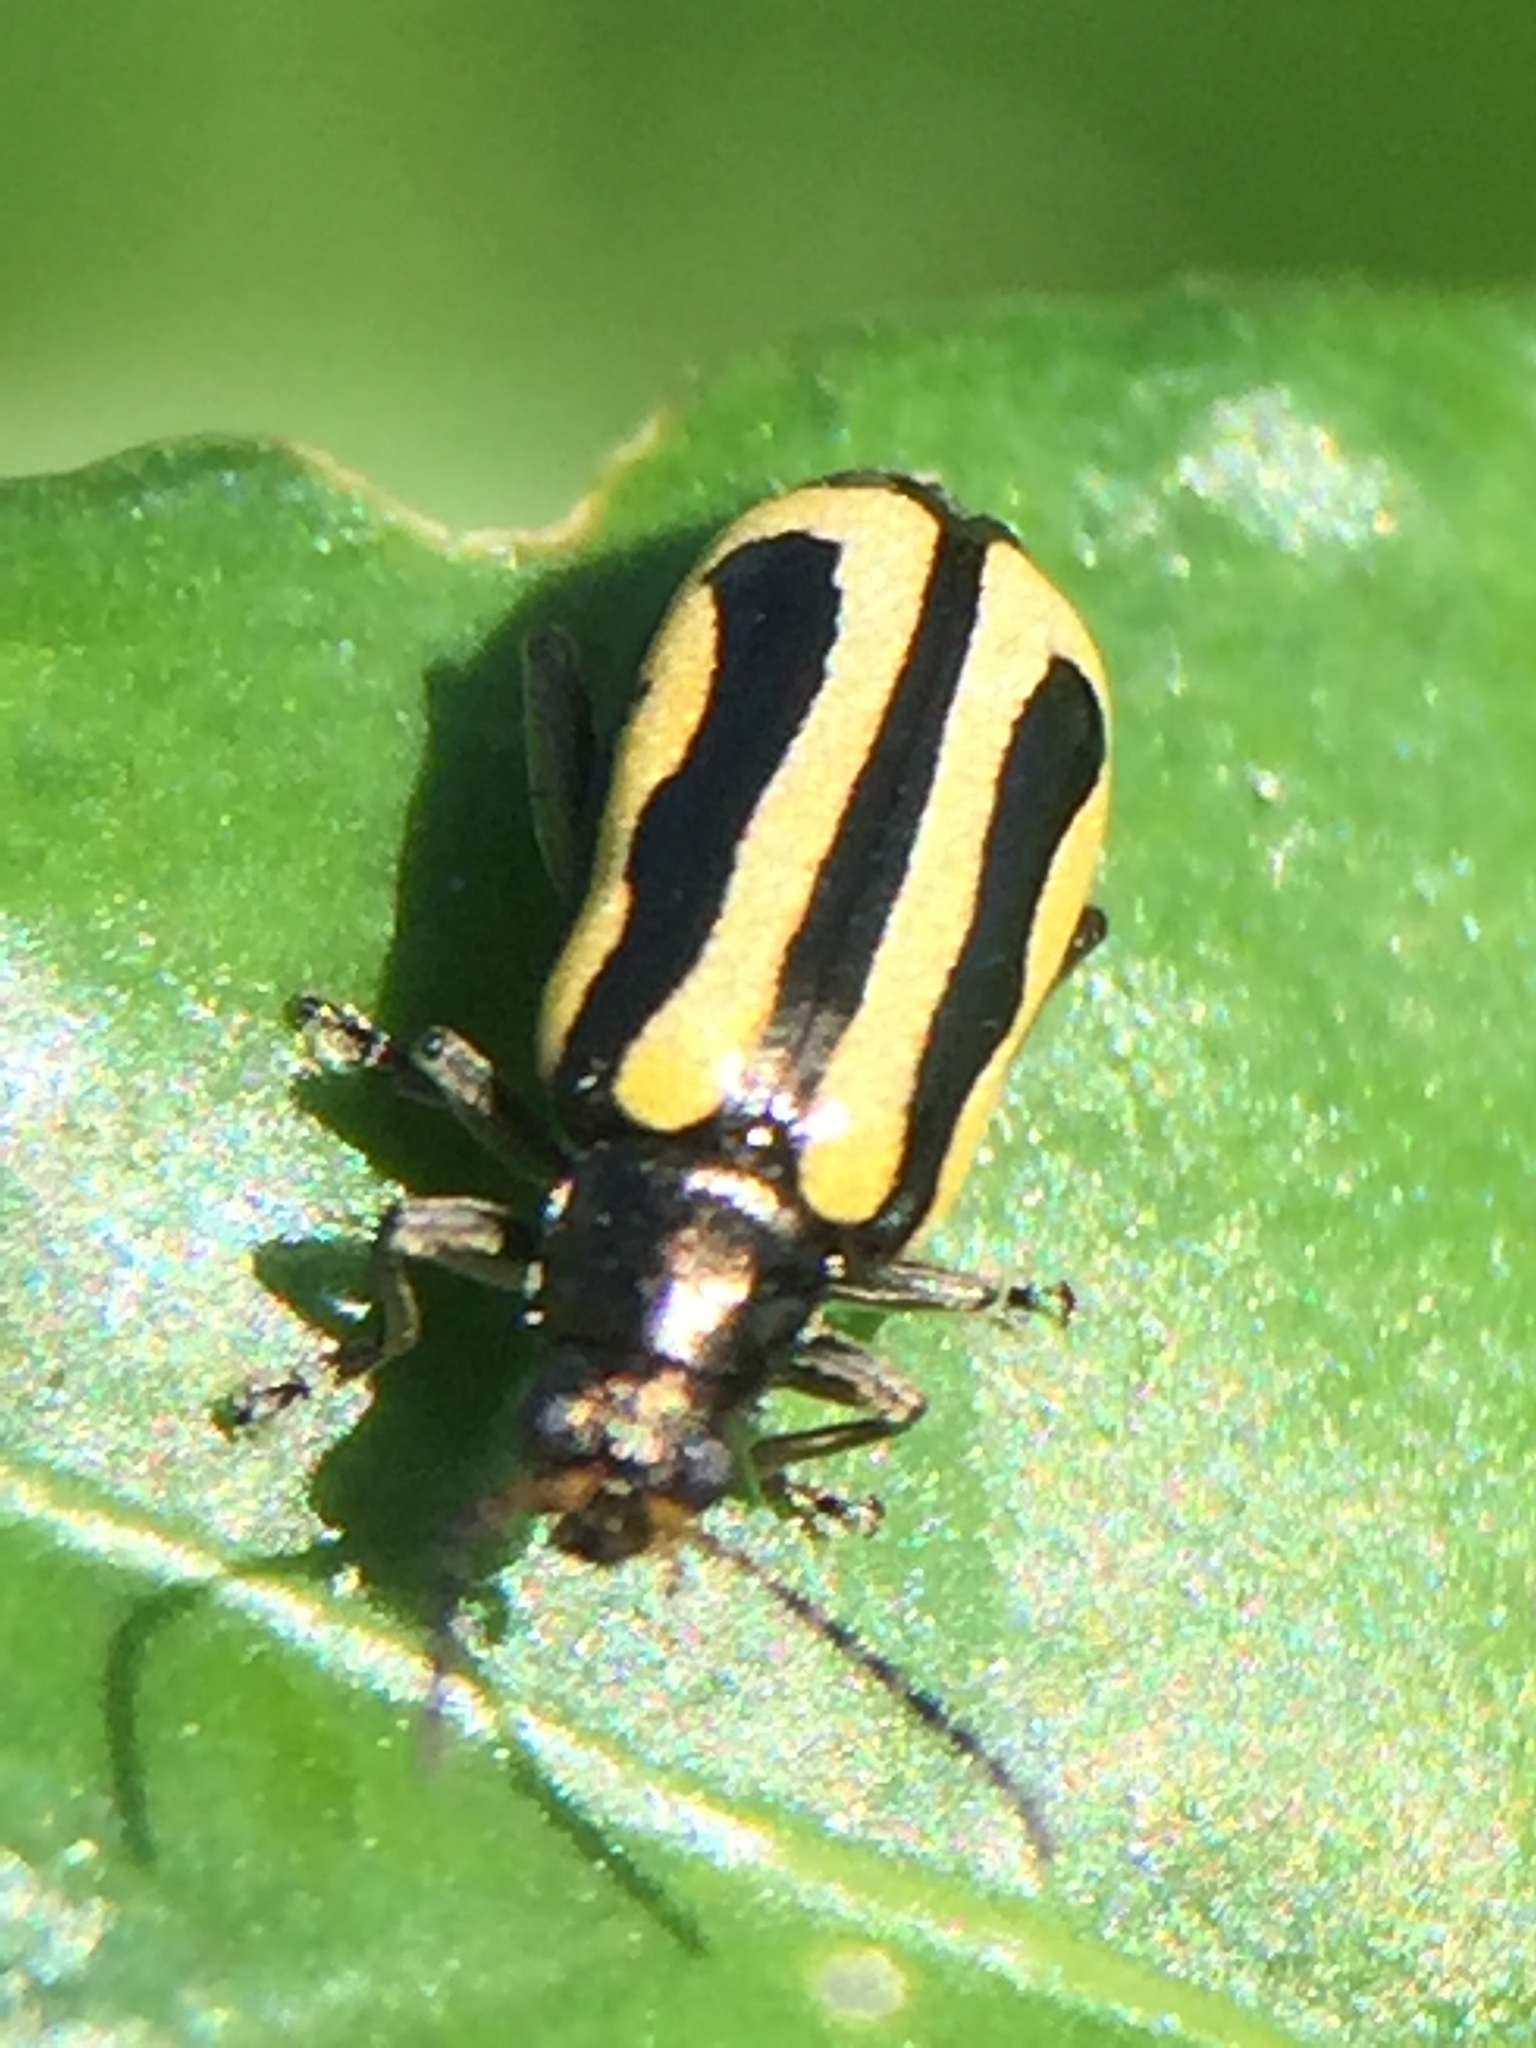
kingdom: Animalia
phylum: Arthropoda
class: Insecta
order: Coleoptera
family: Chrysomelidae
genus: Agasicles
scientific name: Agasicles hygrophila
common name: Alligatorweed flea beetle
